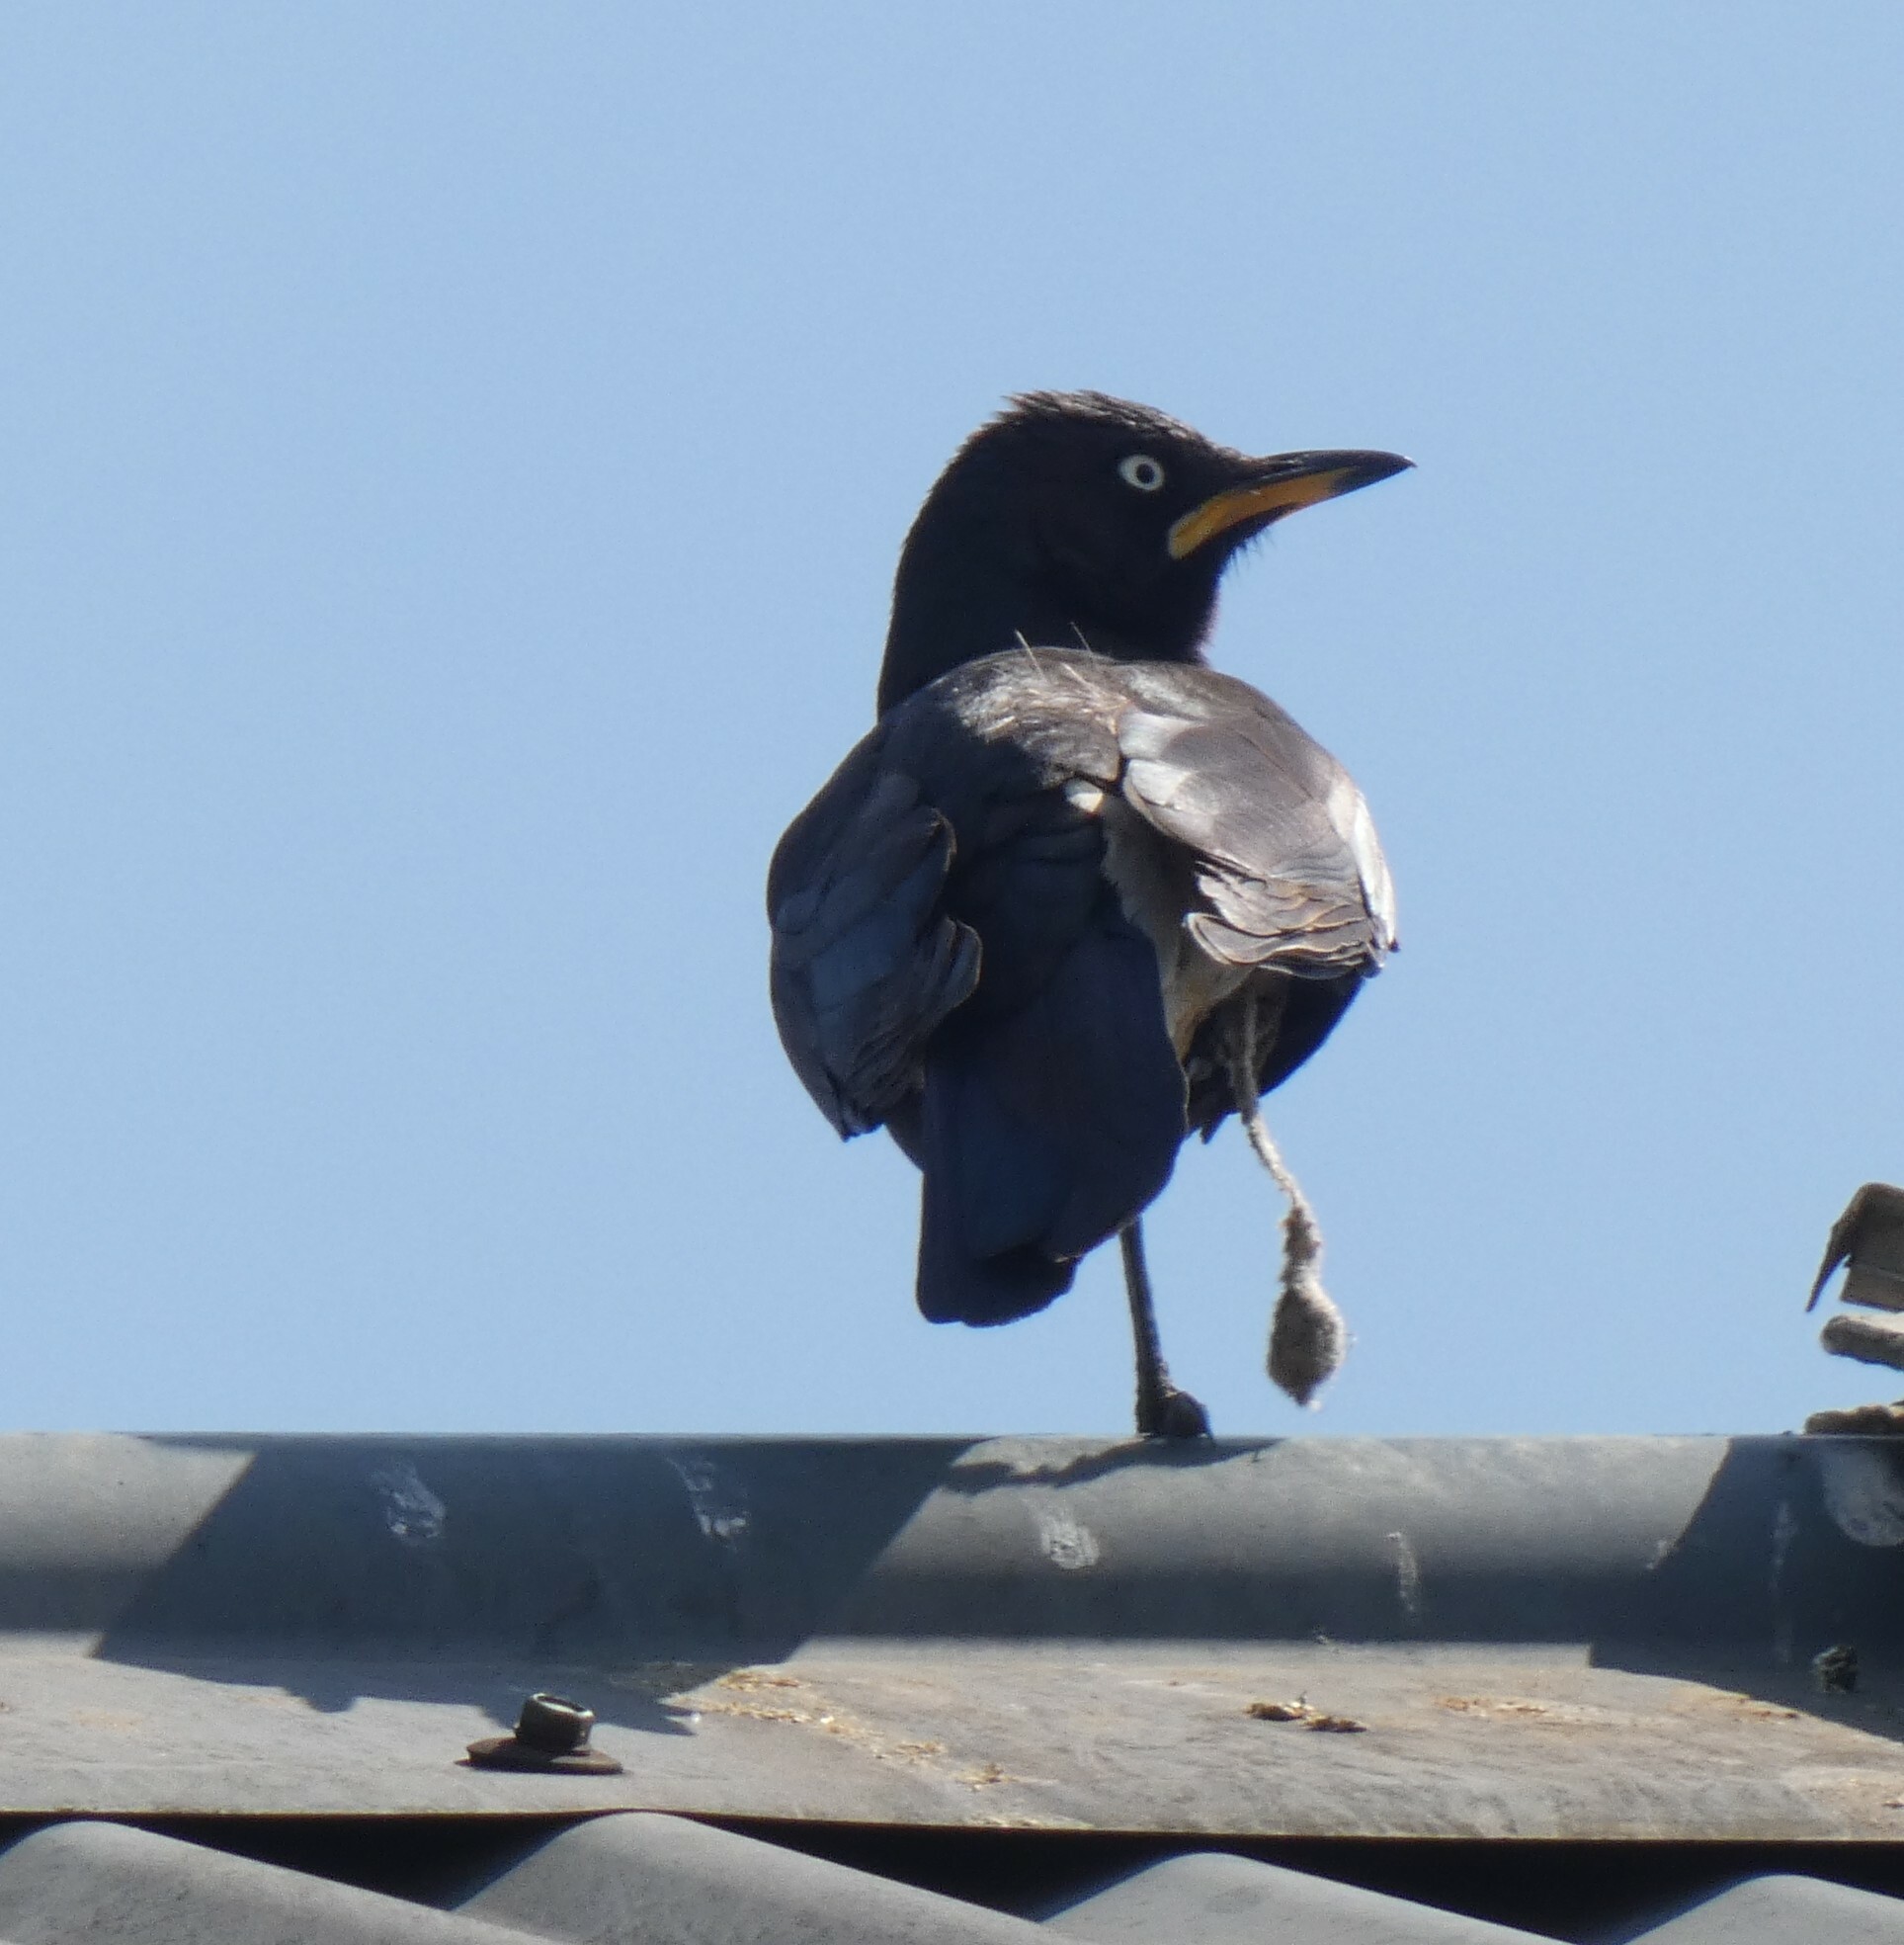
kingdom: Animalia
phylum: Chordata
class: Aves
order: Passeriformes
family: Sturnidae
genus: Lamprotornis
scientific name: Lamprotornis bicolor
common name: Pied starling
